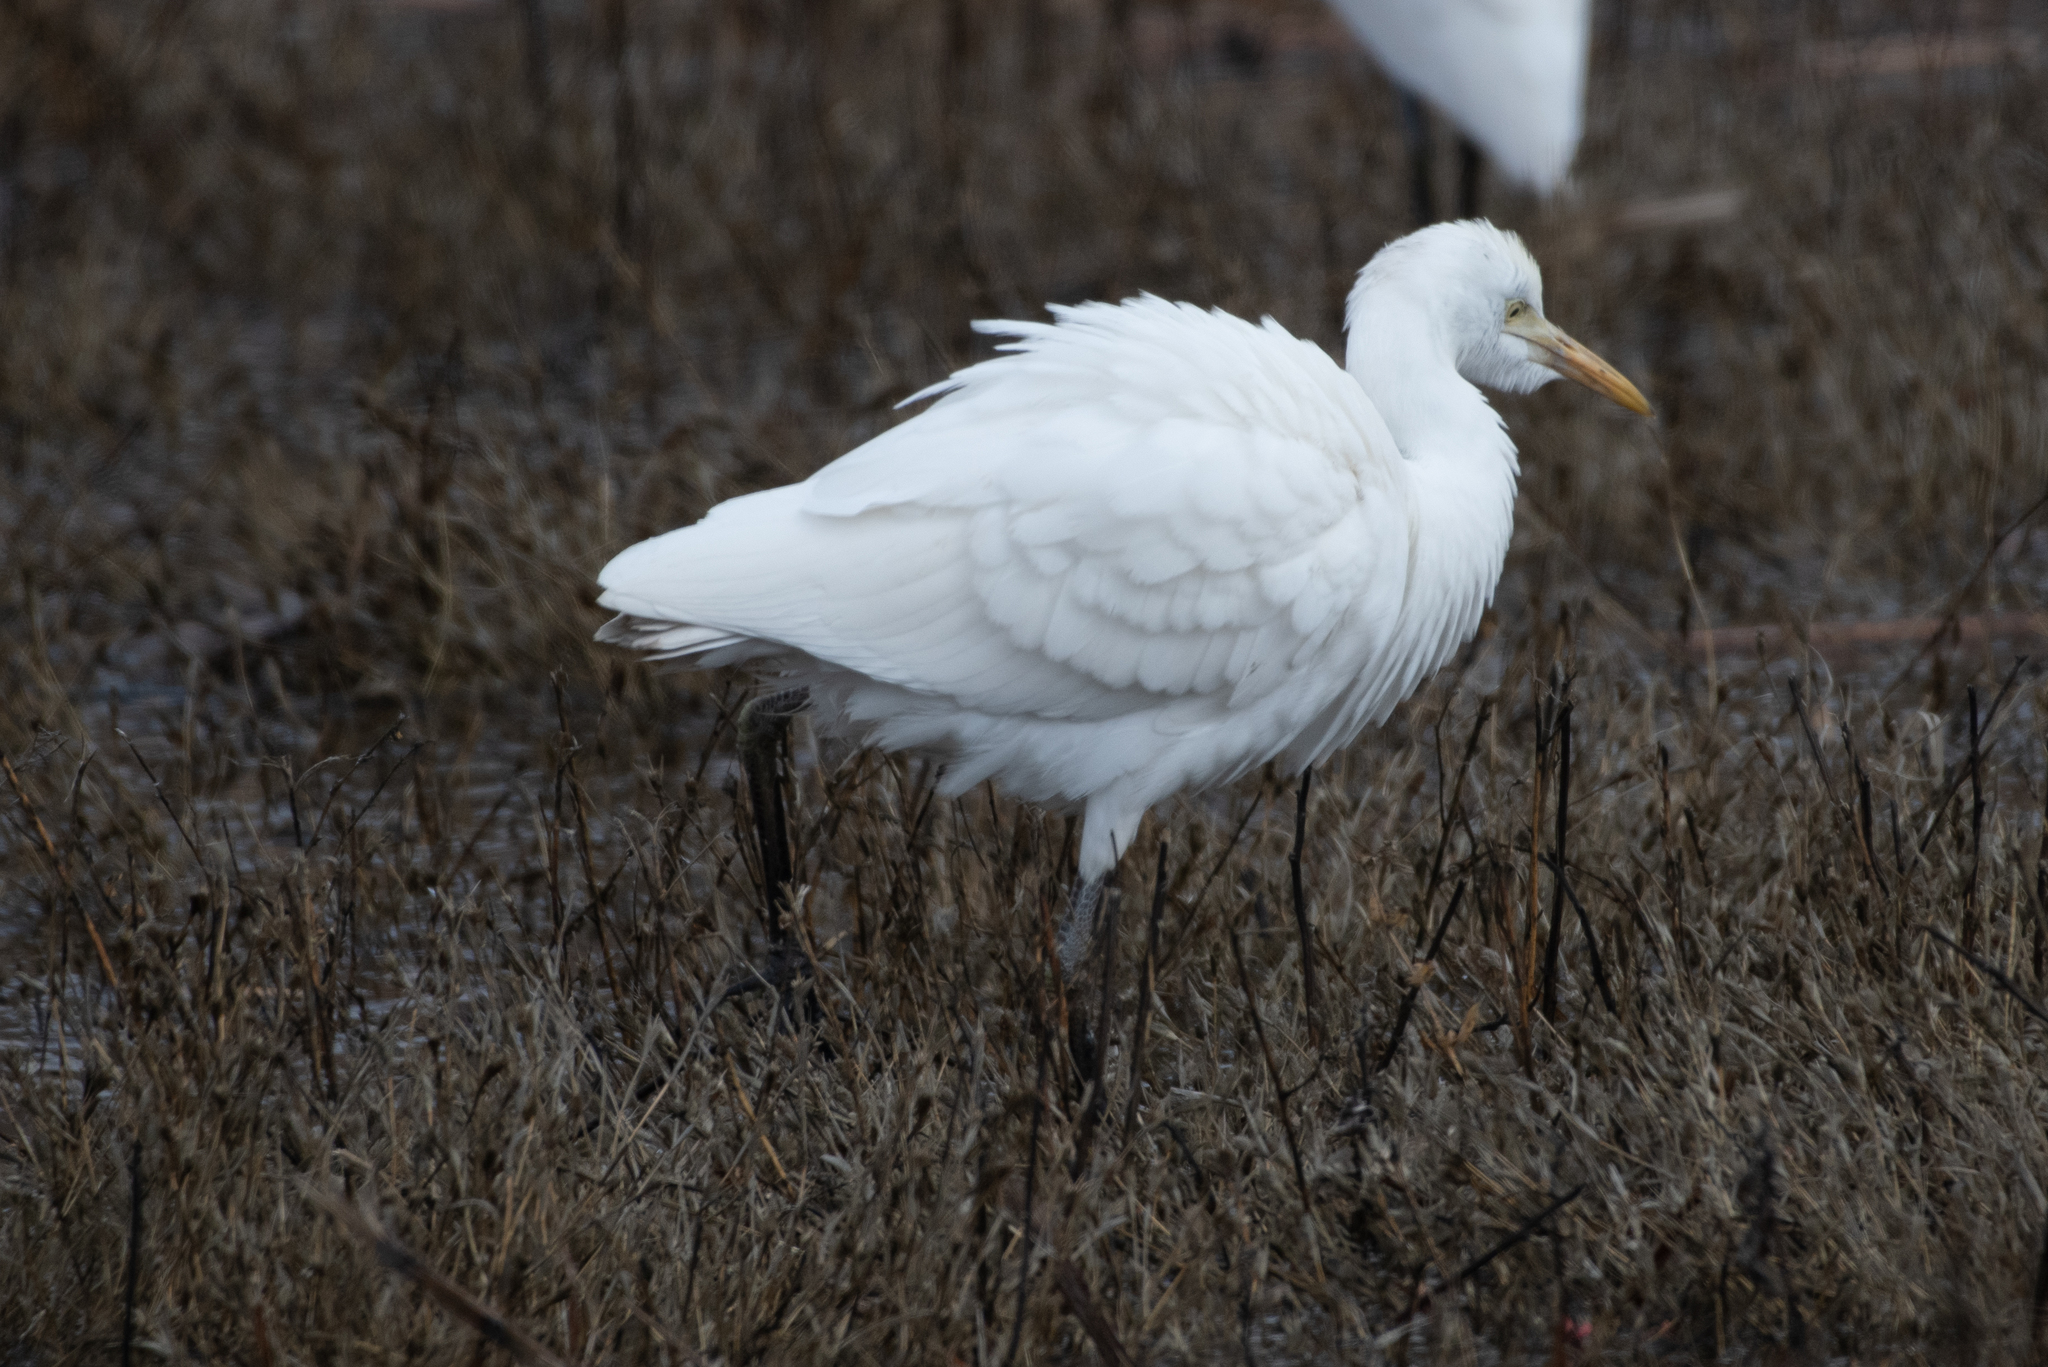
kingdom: Animalia
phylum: Chordata
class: Aves
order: Pelecaniformes
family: Ardeidae
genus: Bubulcus
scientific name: Bubulcus ibis
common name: Cattle egret
